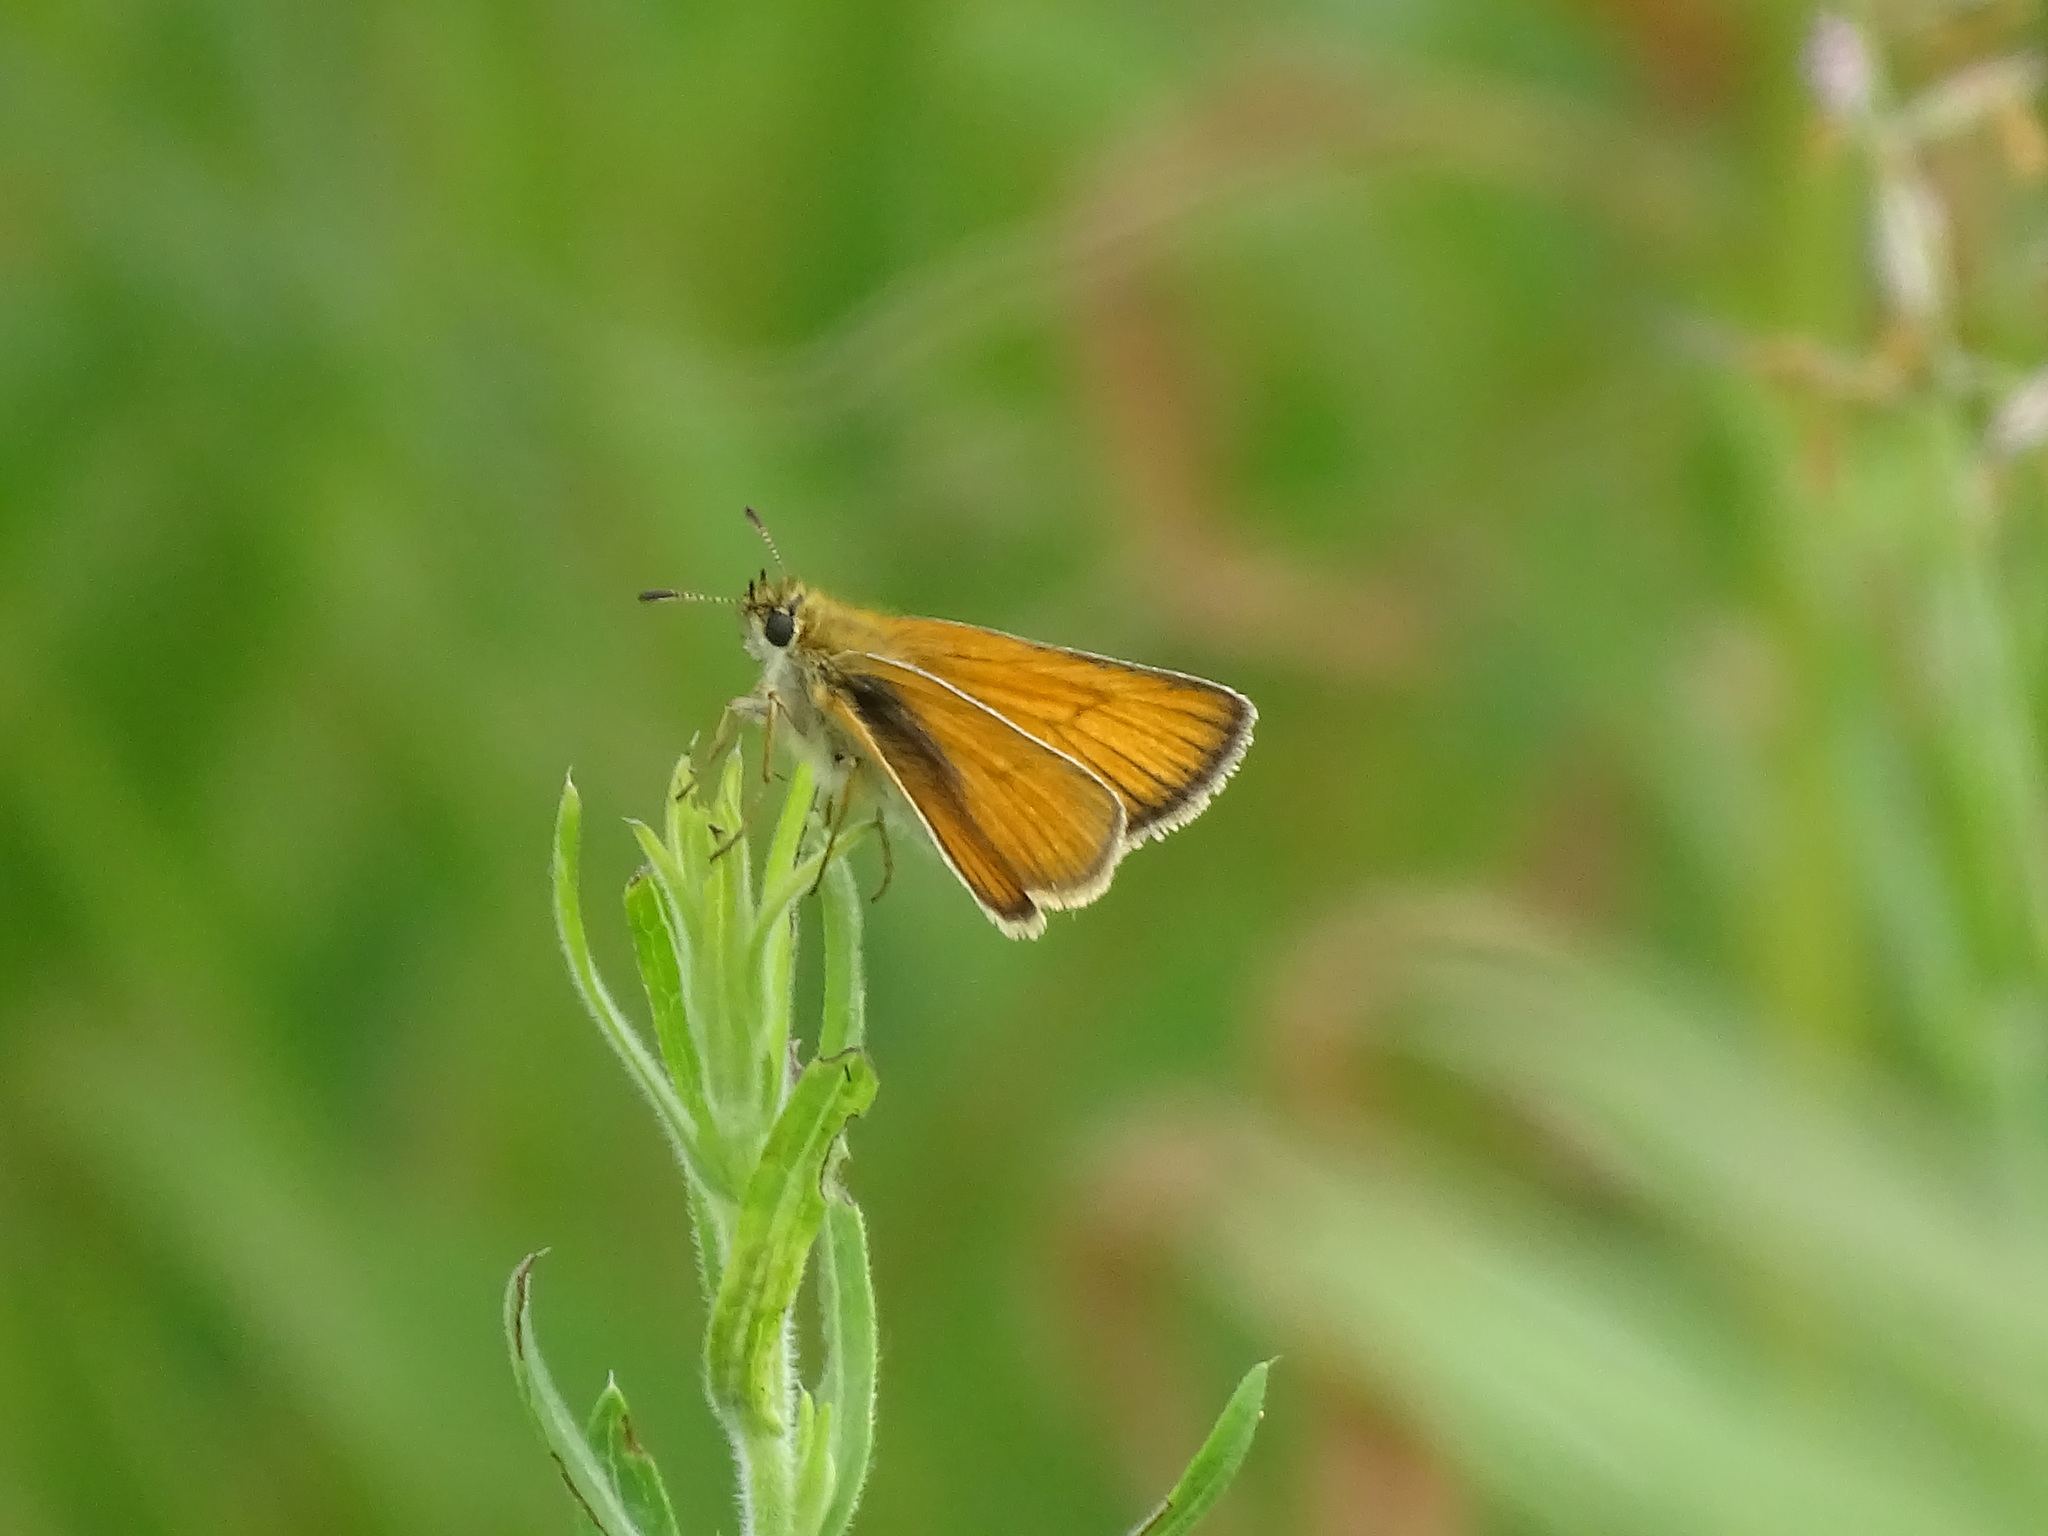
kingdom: Animalia
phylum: Arthropoda
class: Insecta
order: Lepidoptera
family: Hesperiidae
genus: Thymelicus
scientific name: Thymelicus lineola
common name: Essex skipper
